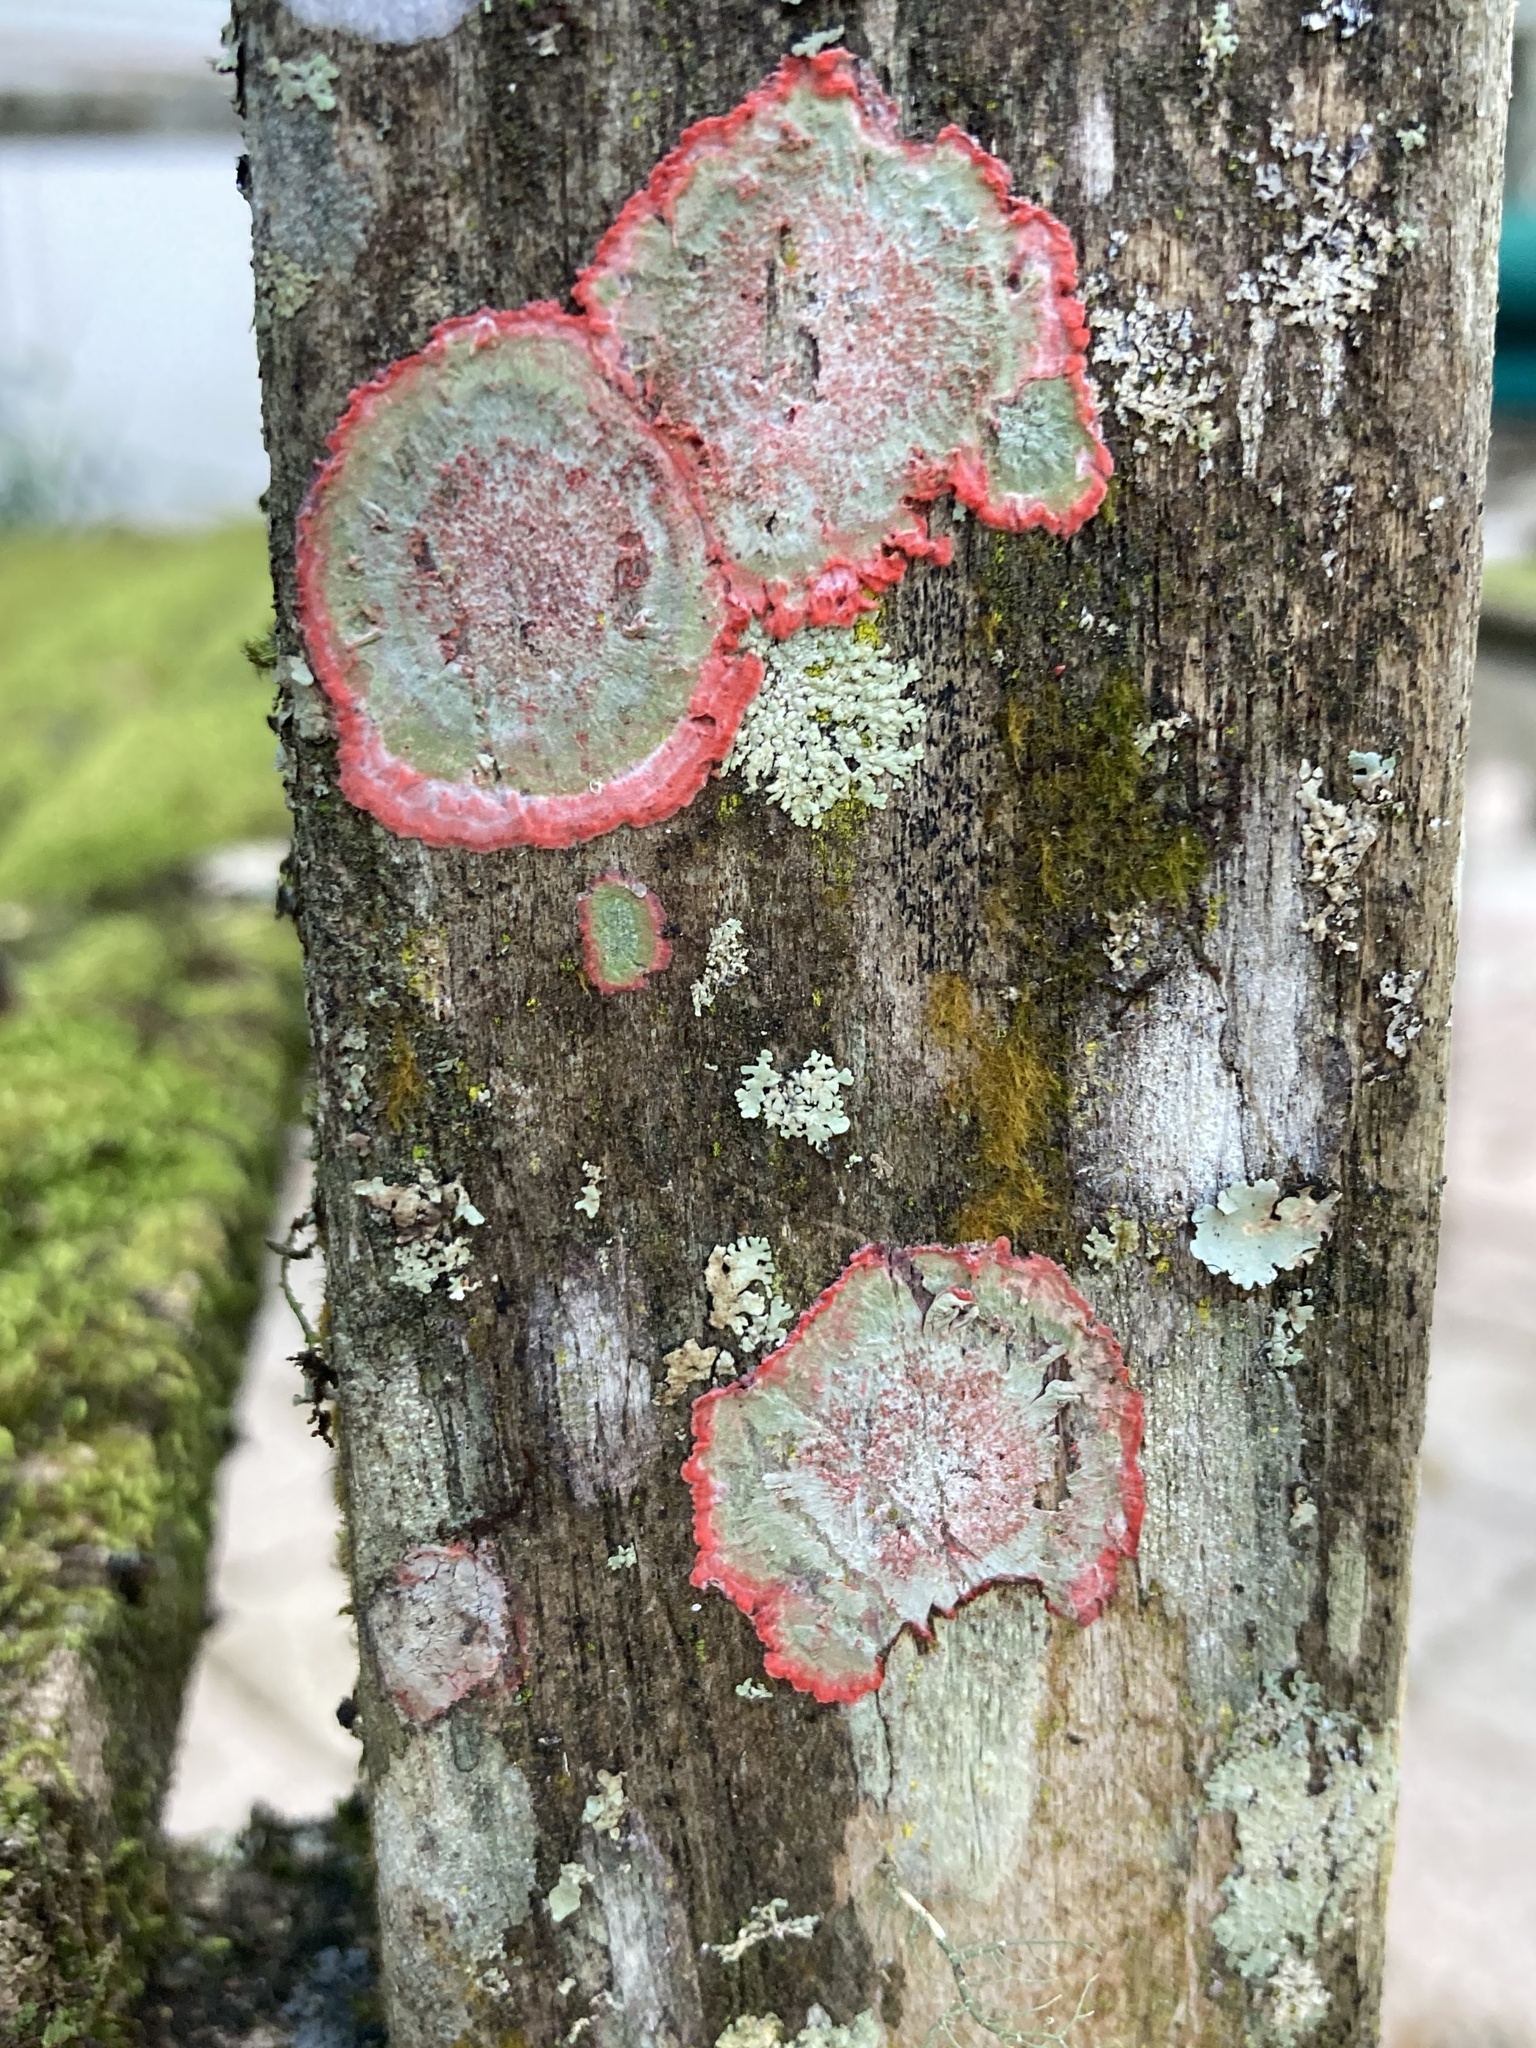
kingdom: Fungi
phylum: Ascomycota
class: Arthoniomycetes
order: Arthoniales
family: Arthoniaceae
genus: Herpothallon
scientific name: Herpothallon rubrocinctum
